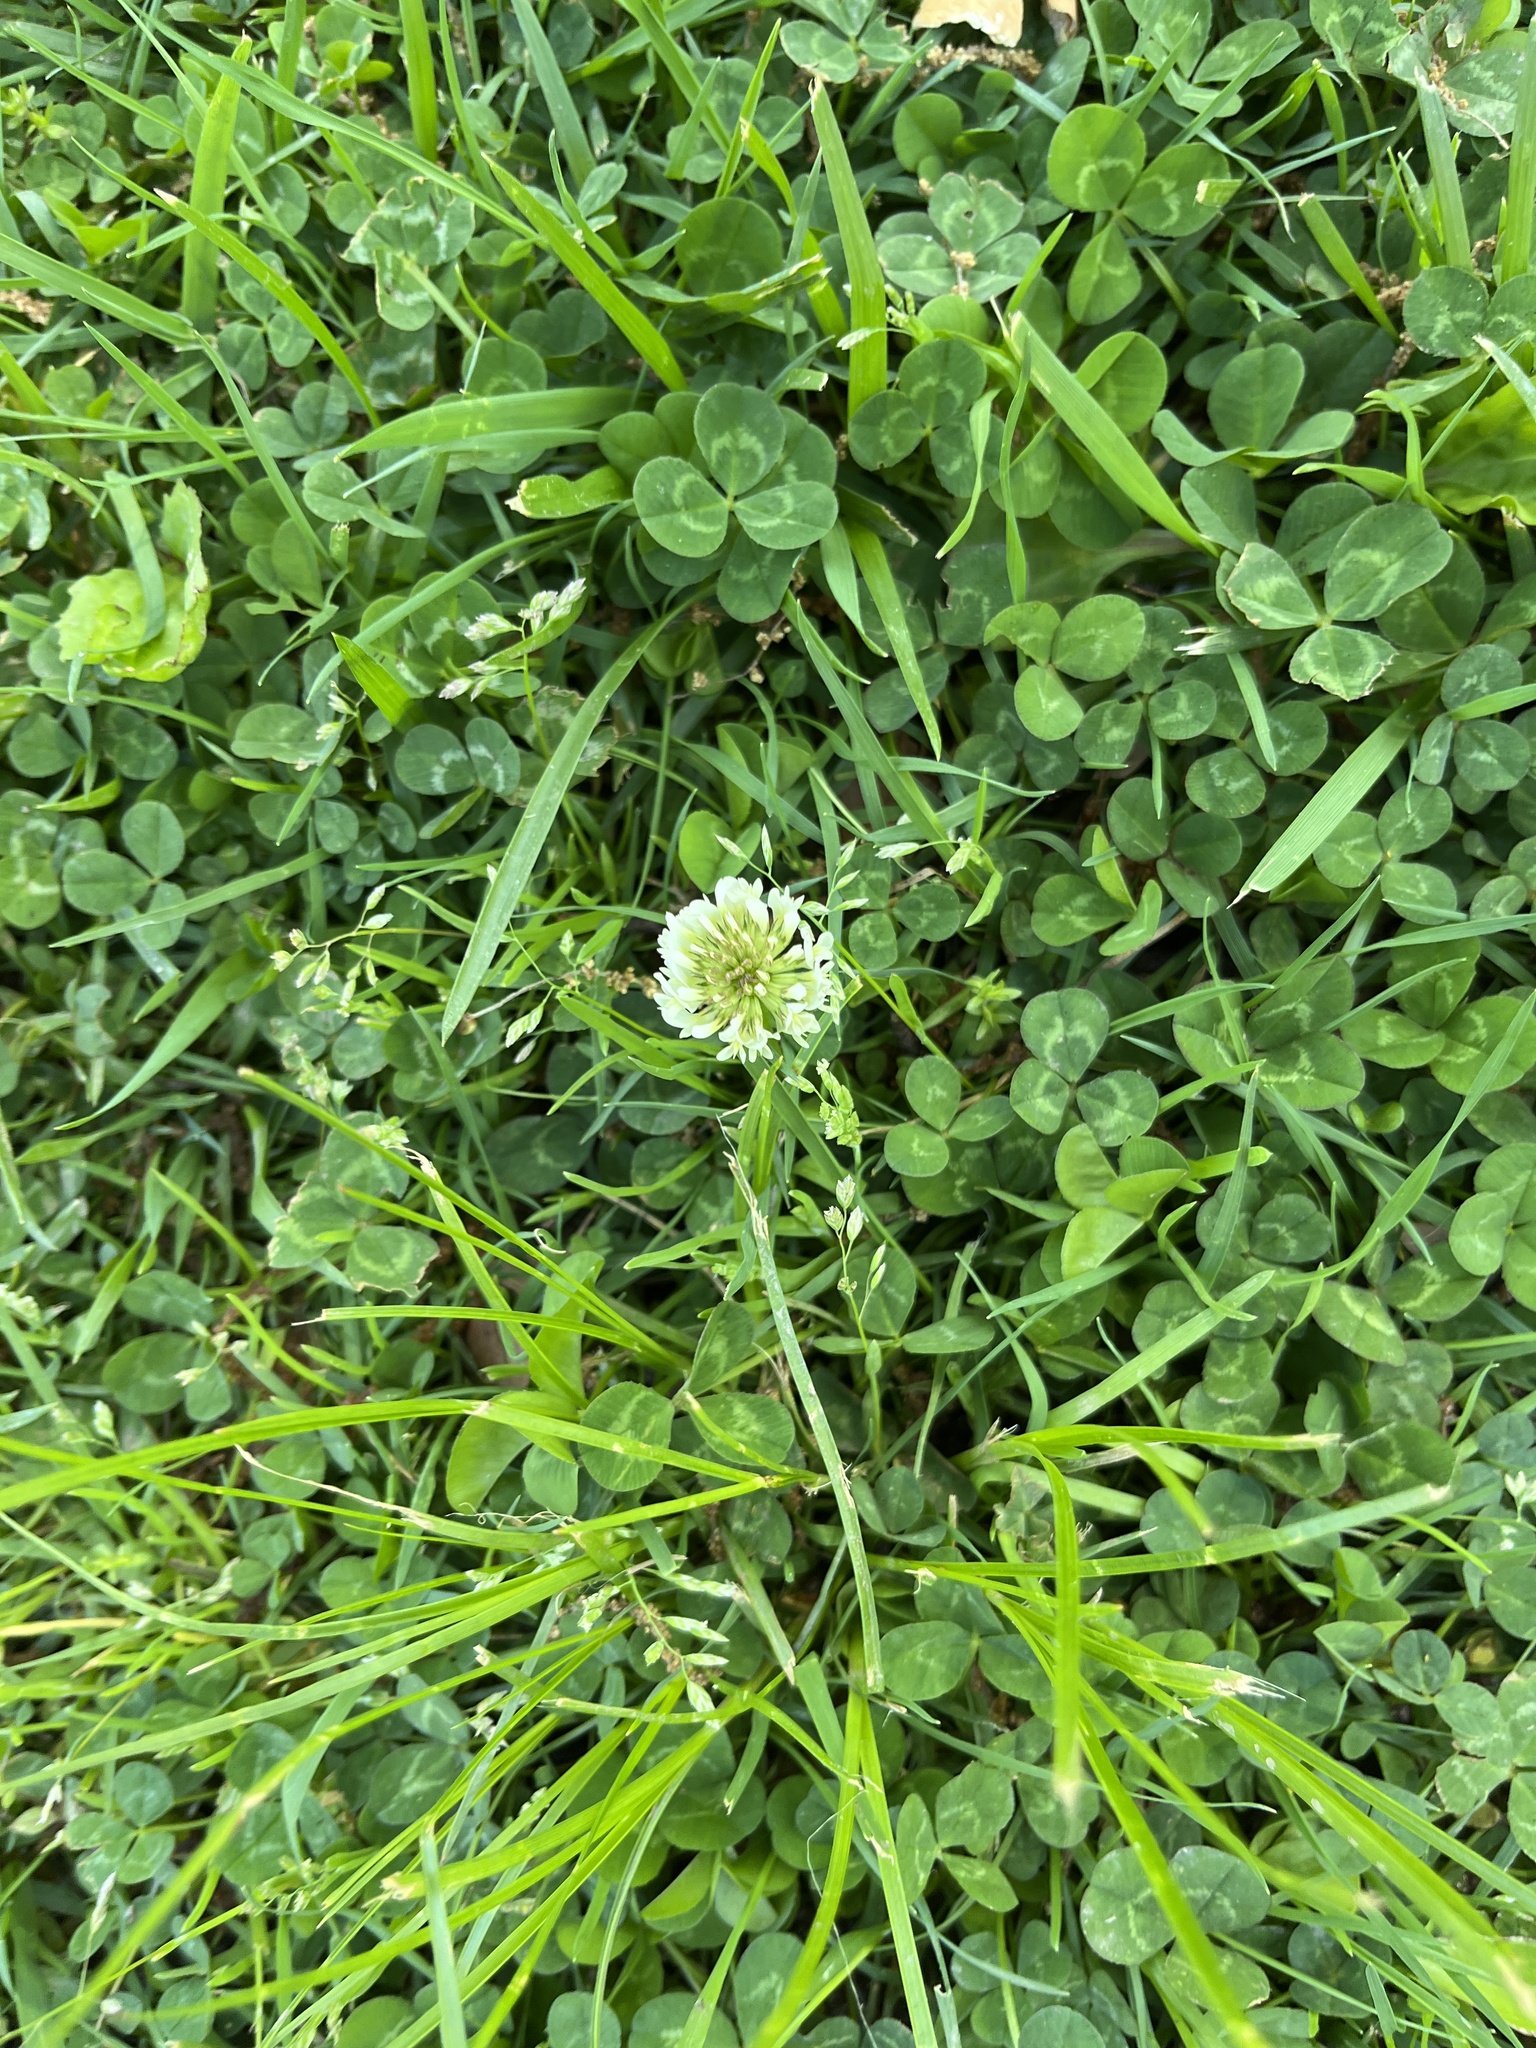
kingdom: Plantae
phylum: Tracheophyta
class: Magnoliopsida
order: Fabales
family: Fabaceae
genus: Trifolium
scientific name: Trifolium repens
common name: White clover
